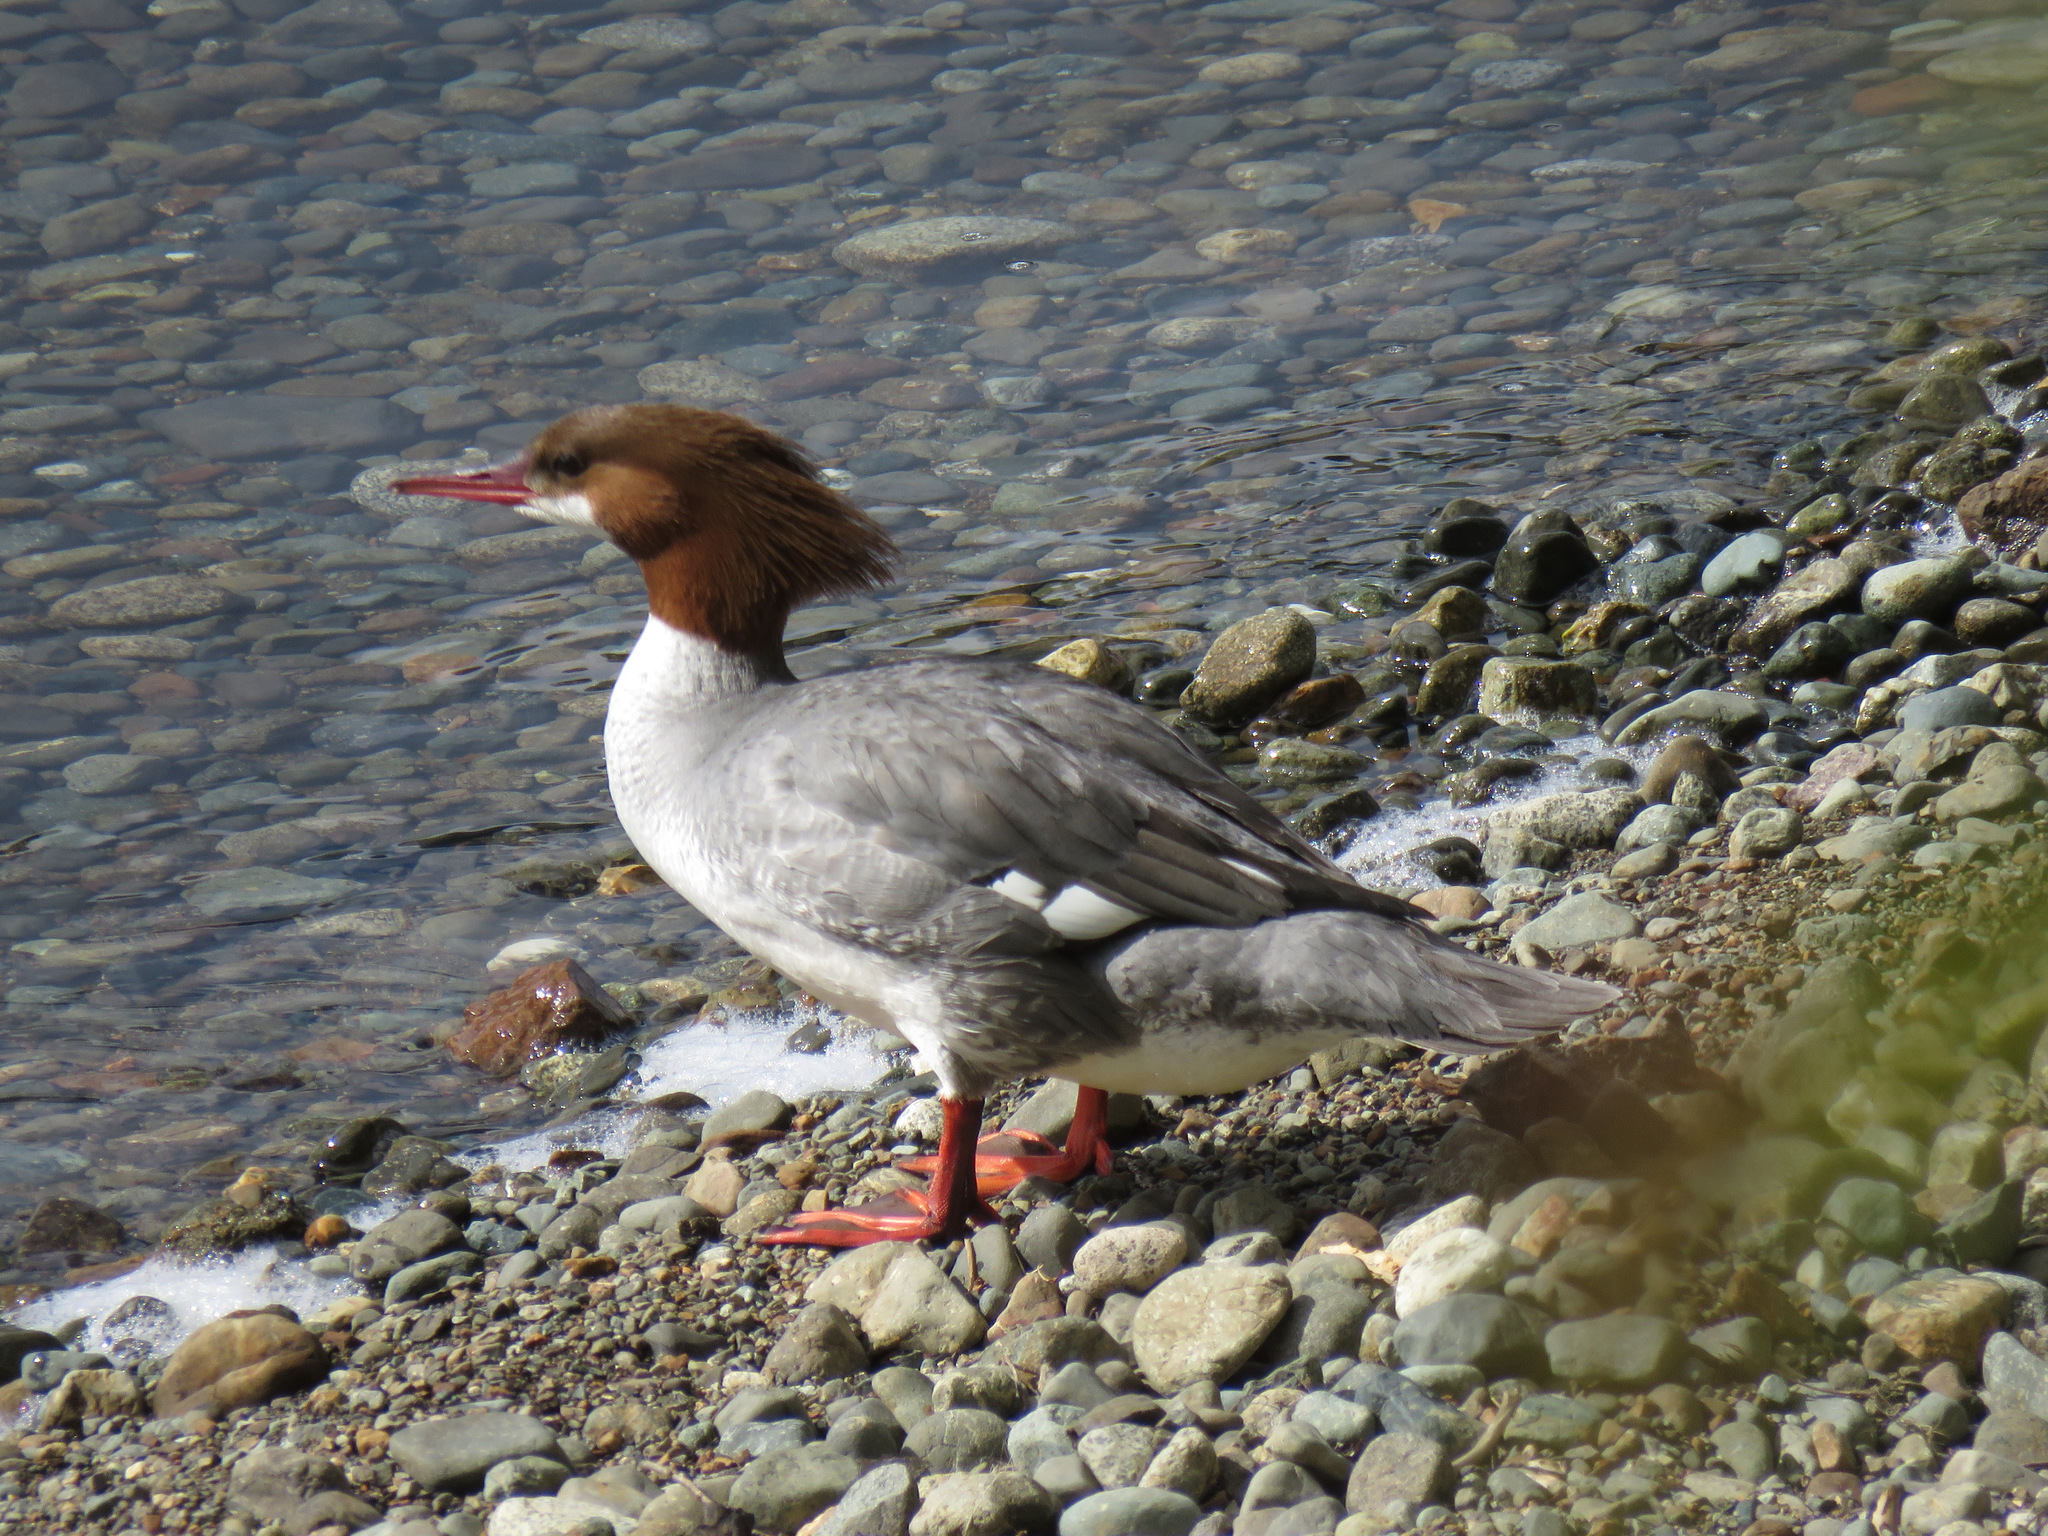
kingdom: Animalia
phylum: Chordata
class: Aves
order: Anseriformes
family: Anatidae
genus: Mergus
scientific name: Mergus merganser
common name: Common merganser
